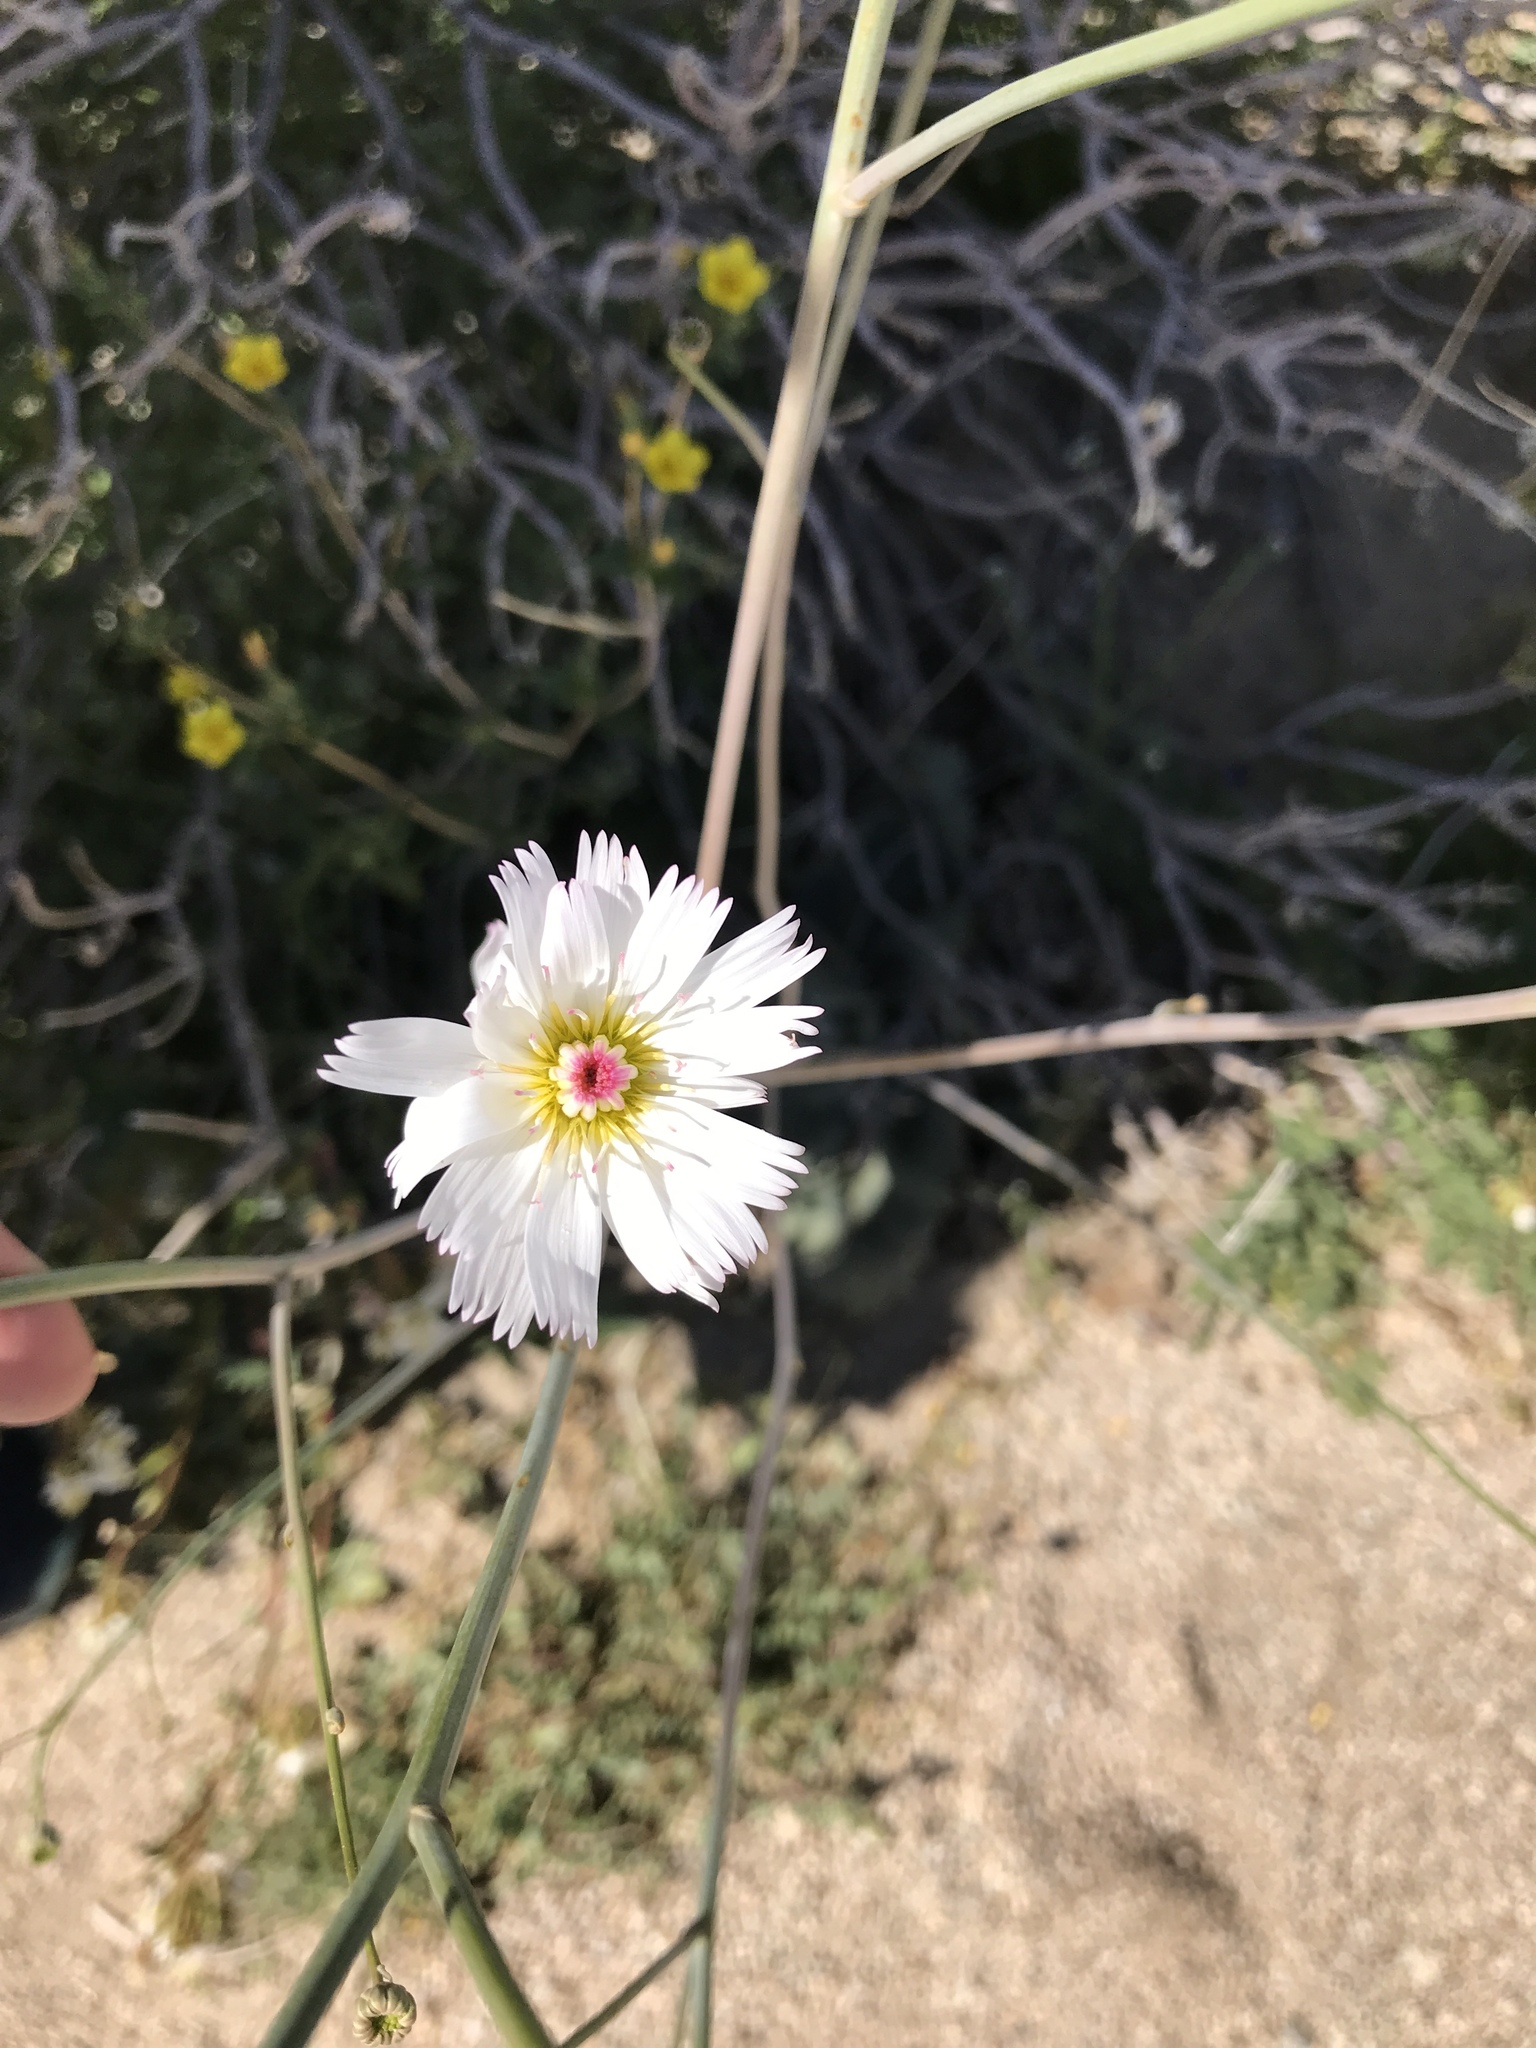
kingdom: Plantae
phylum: Tracheophyta
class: Magnoliopsida
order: Asterales
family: Asteraceae
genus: Atrichoseris
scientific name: Atrichoseris platyphylla
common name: Tobaccoweed
